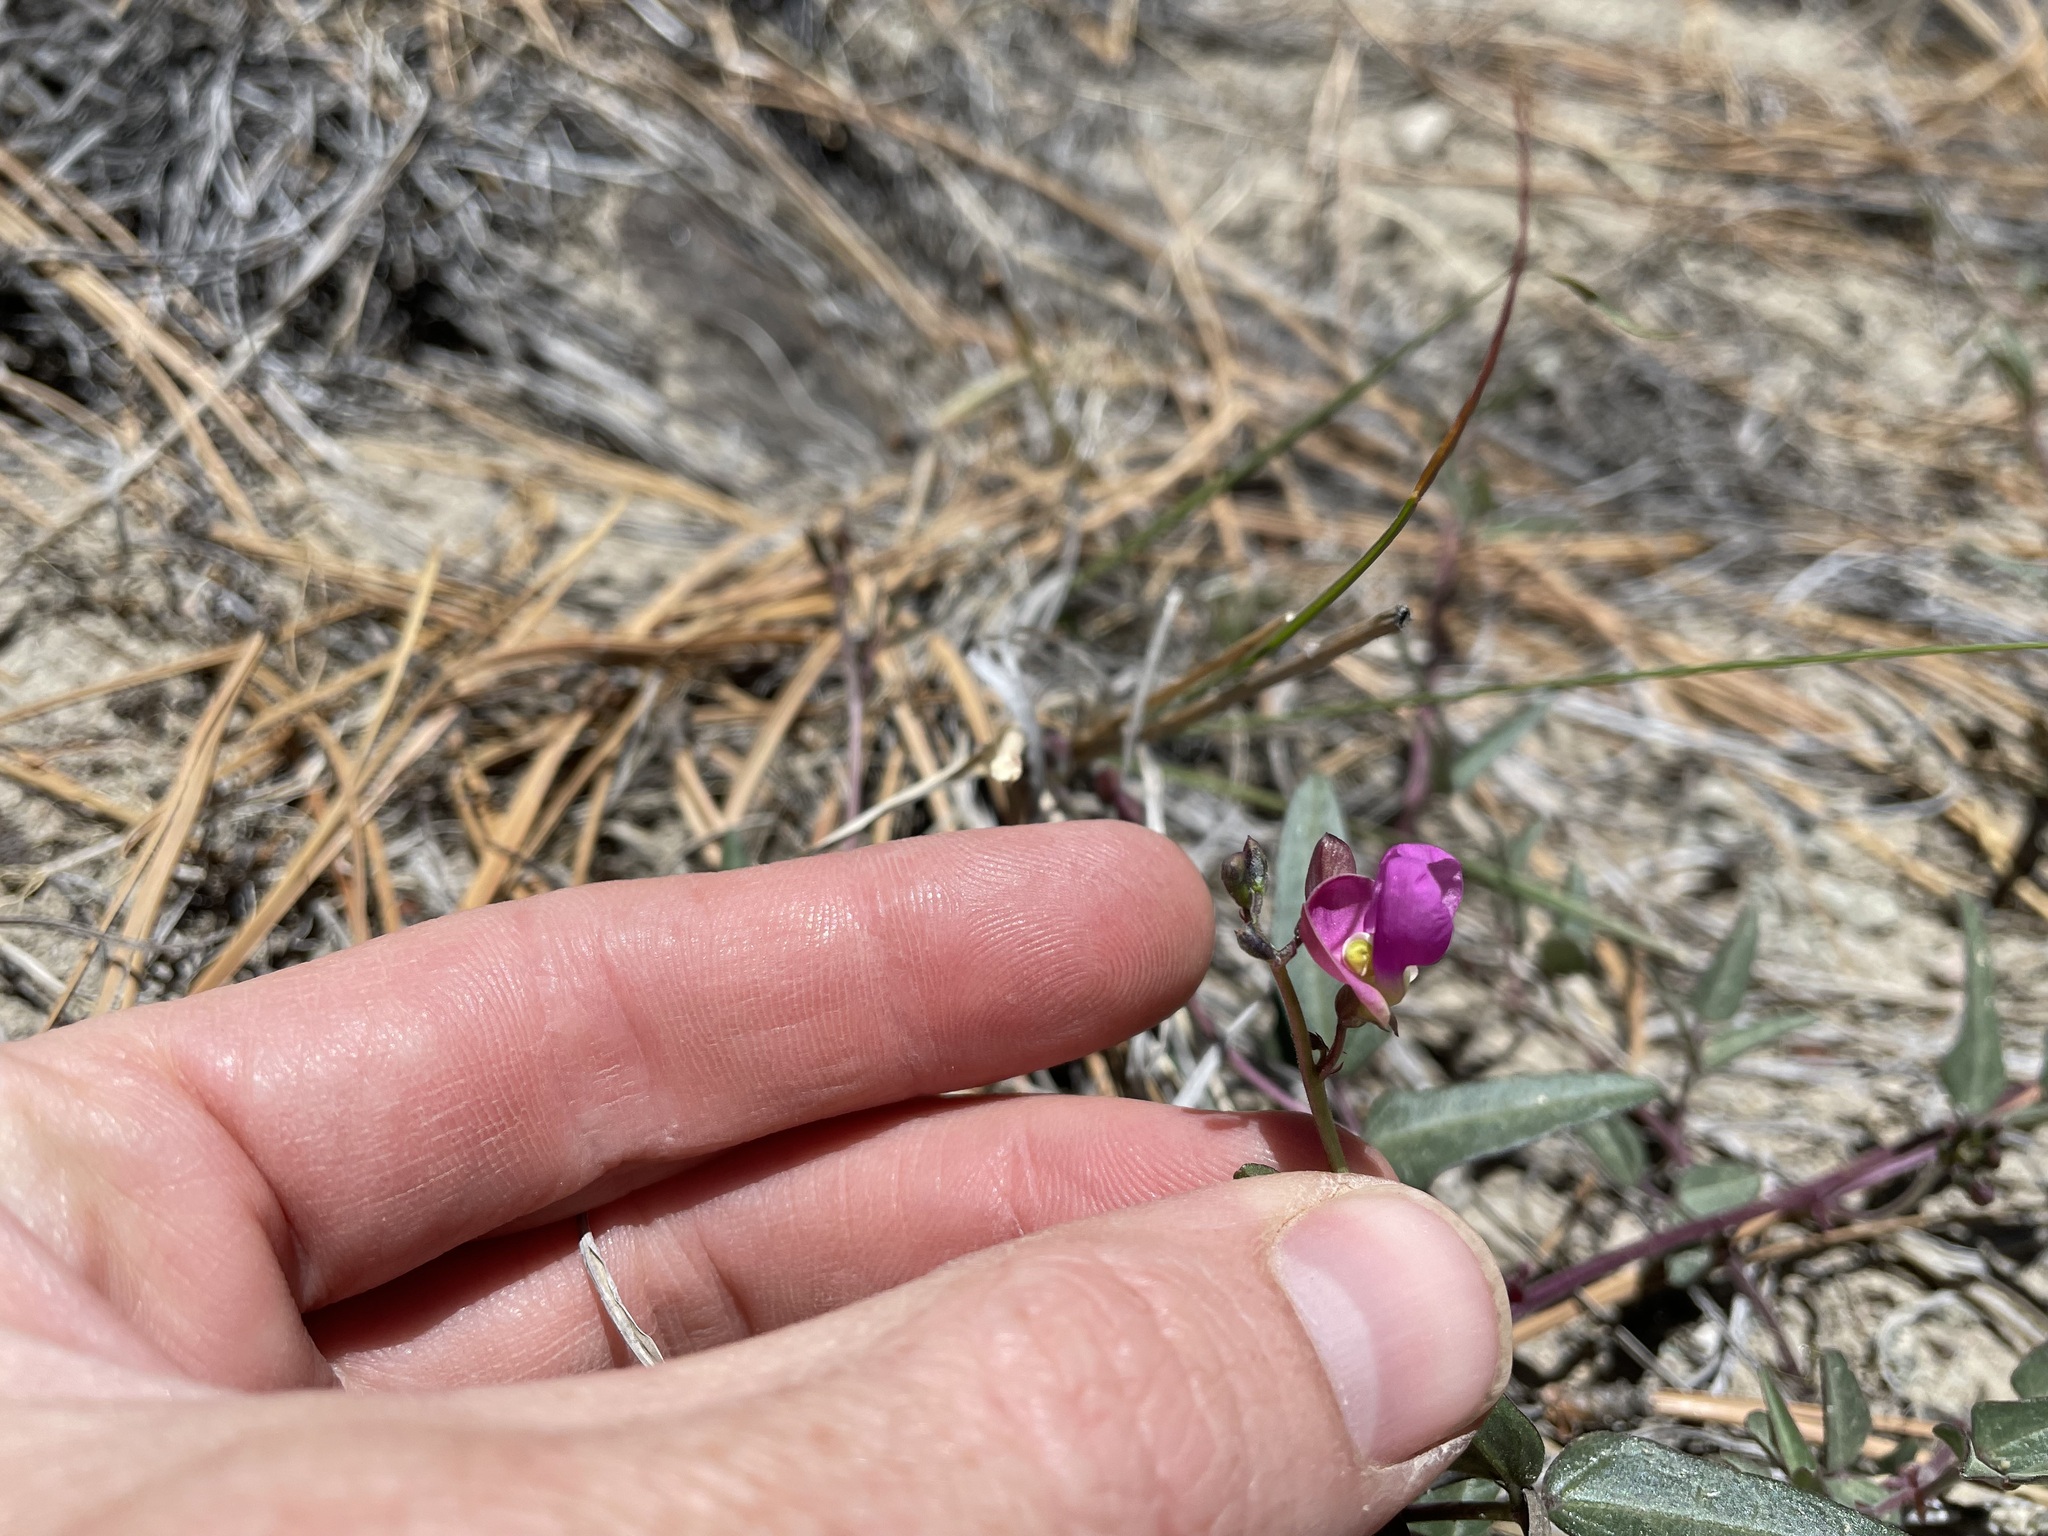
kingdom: Plantae
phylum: Tracheophyta
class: Magnoliopsida
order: Fabales
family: Fabaceae
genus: Phaseolus
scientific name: Phaseolus angustissimus
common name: Slimleaf bean
